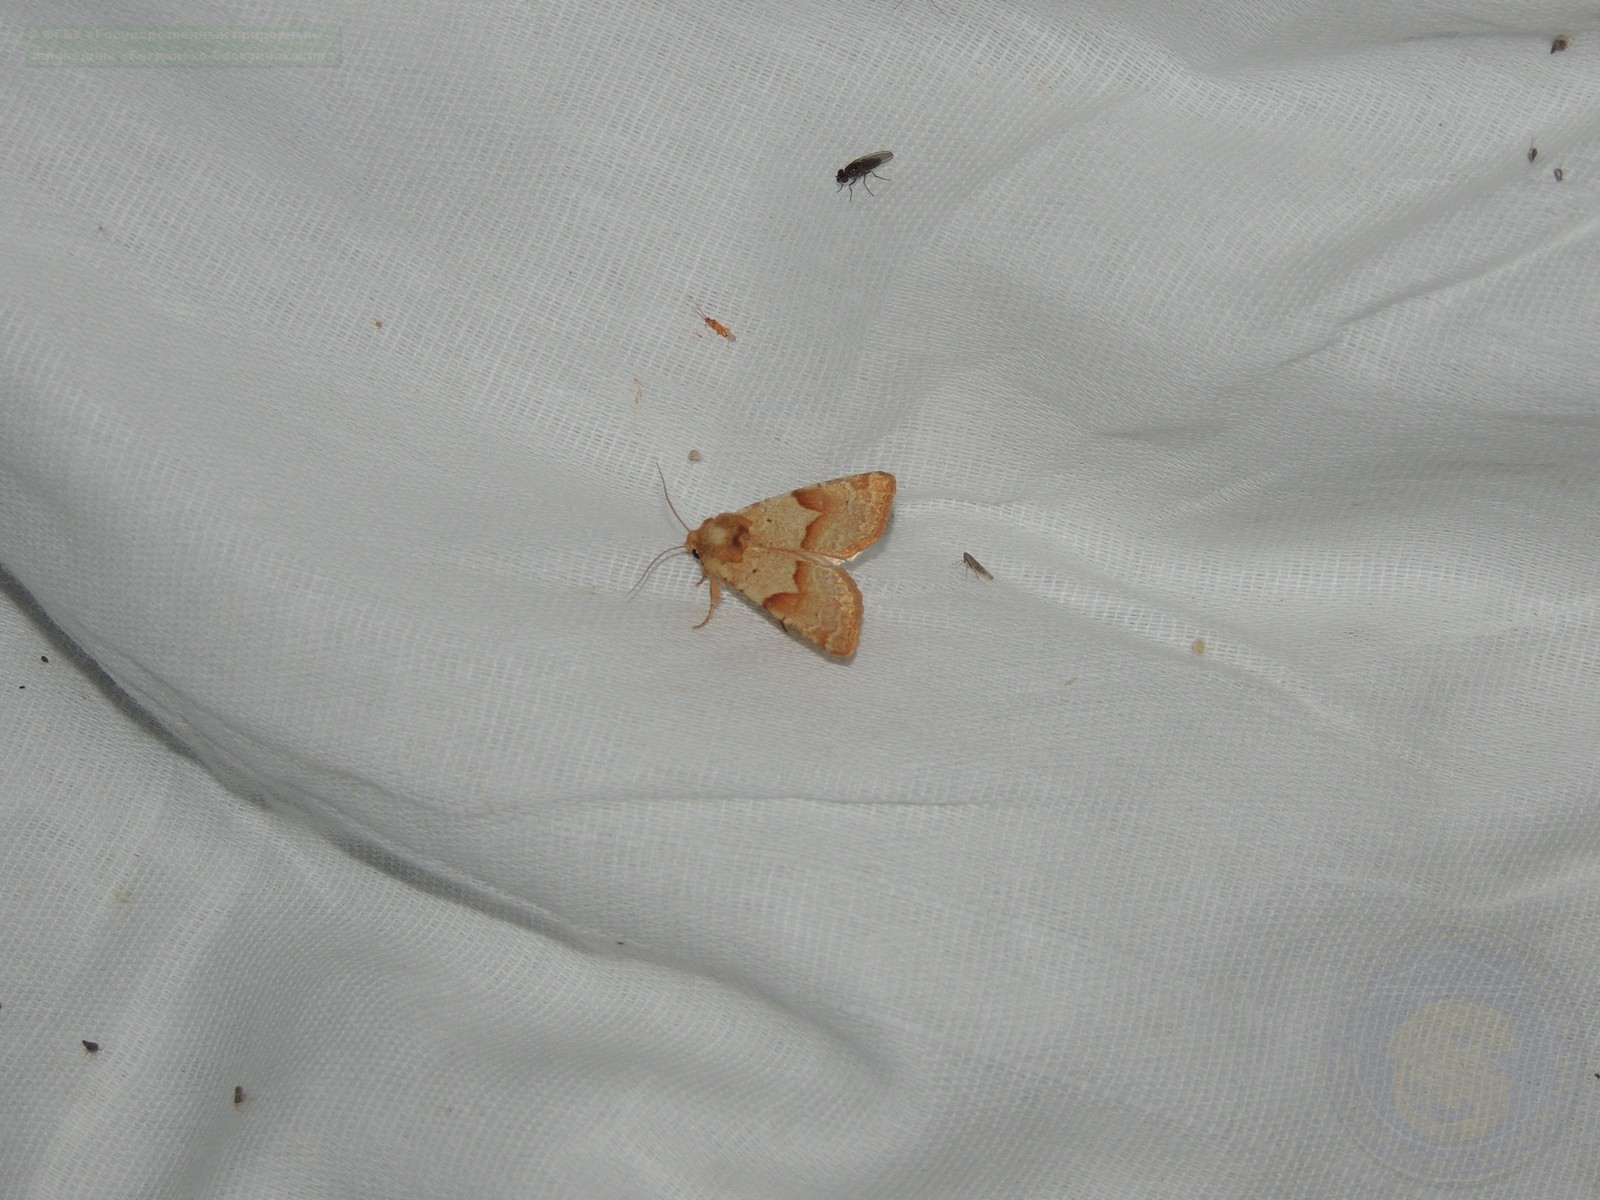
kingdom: Animalia
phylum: Arthropoda
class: Insecta
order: Lepidoptera
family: Noctuidae
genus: Mycteroplus
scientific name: Mycteroplus puniceago
